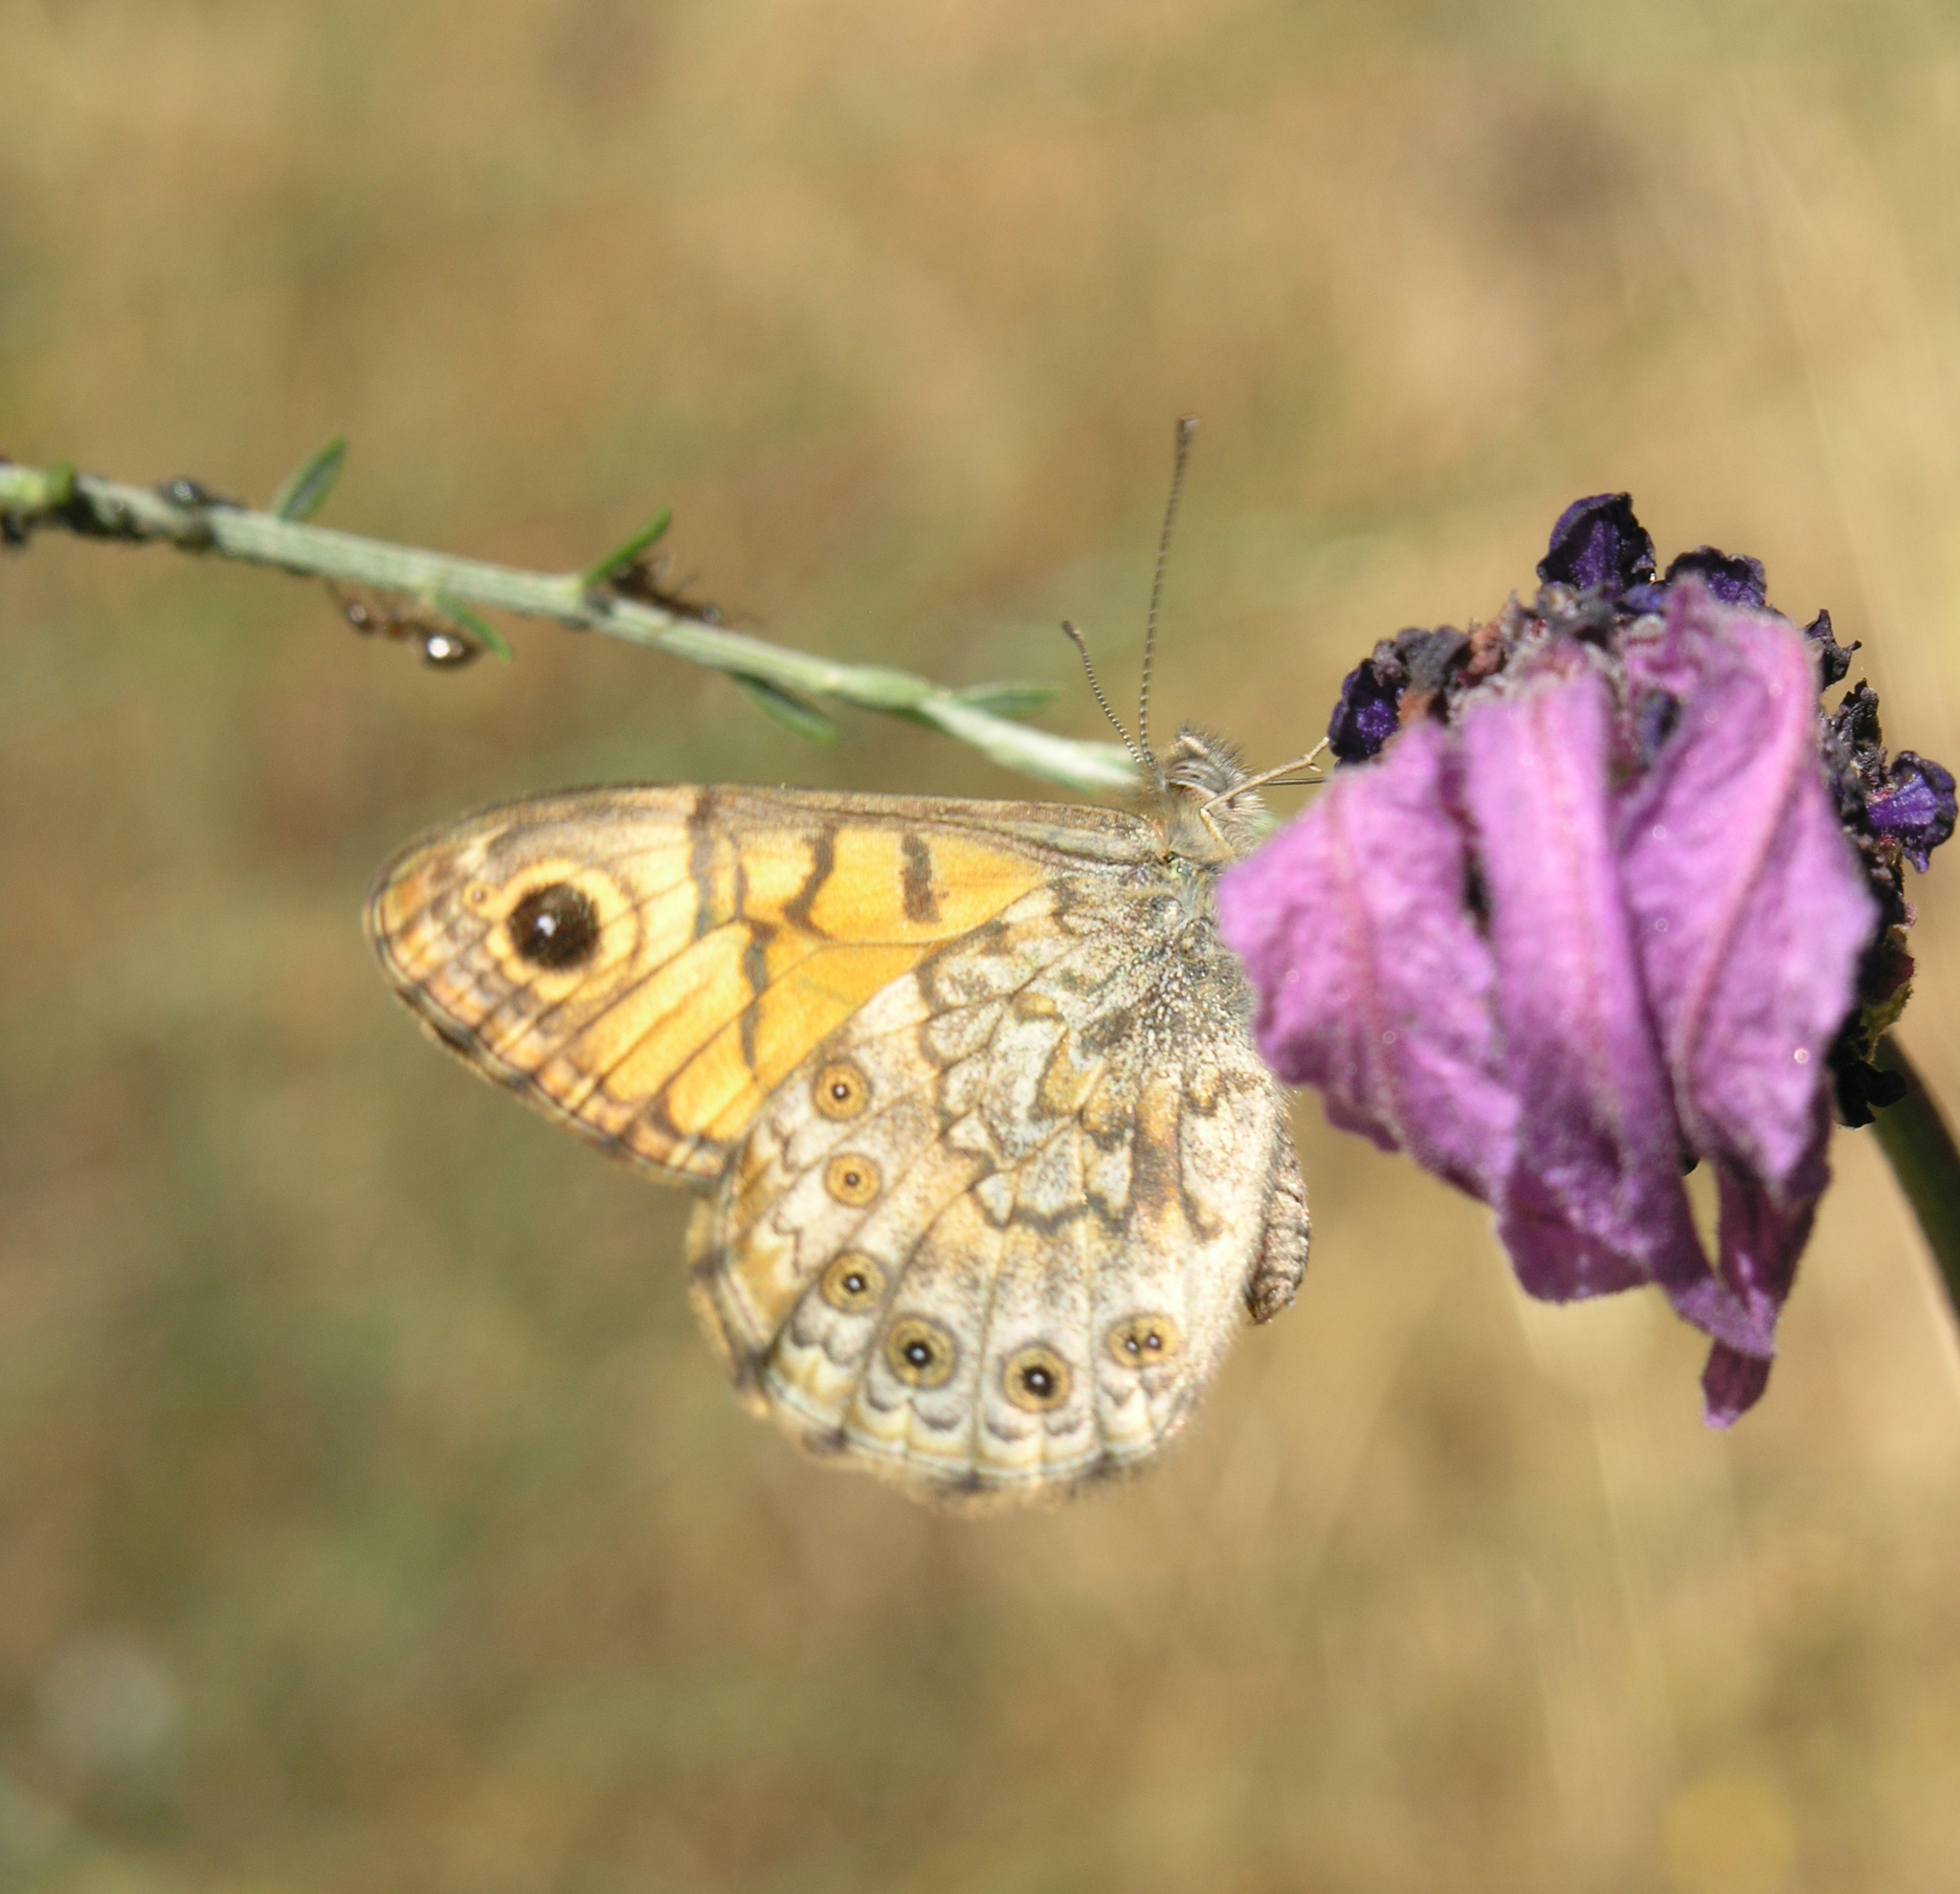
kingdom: Animalia
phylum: Arthropoda
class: Insecta
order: Lepidoptera
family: Nymphalidae
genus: Pararge
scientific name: Pararge Lasiommata megera
